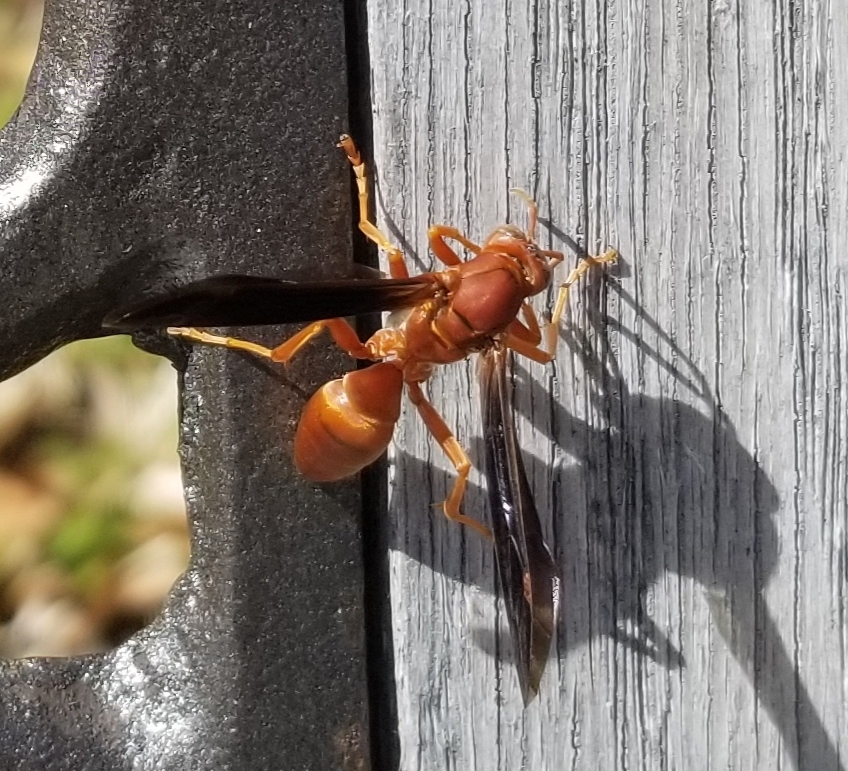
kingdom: Animalia
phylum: Arthropoda
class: Insecta
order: Hymenoptera
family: Eumenidae
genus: Polistes
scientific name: Polistes carolina
